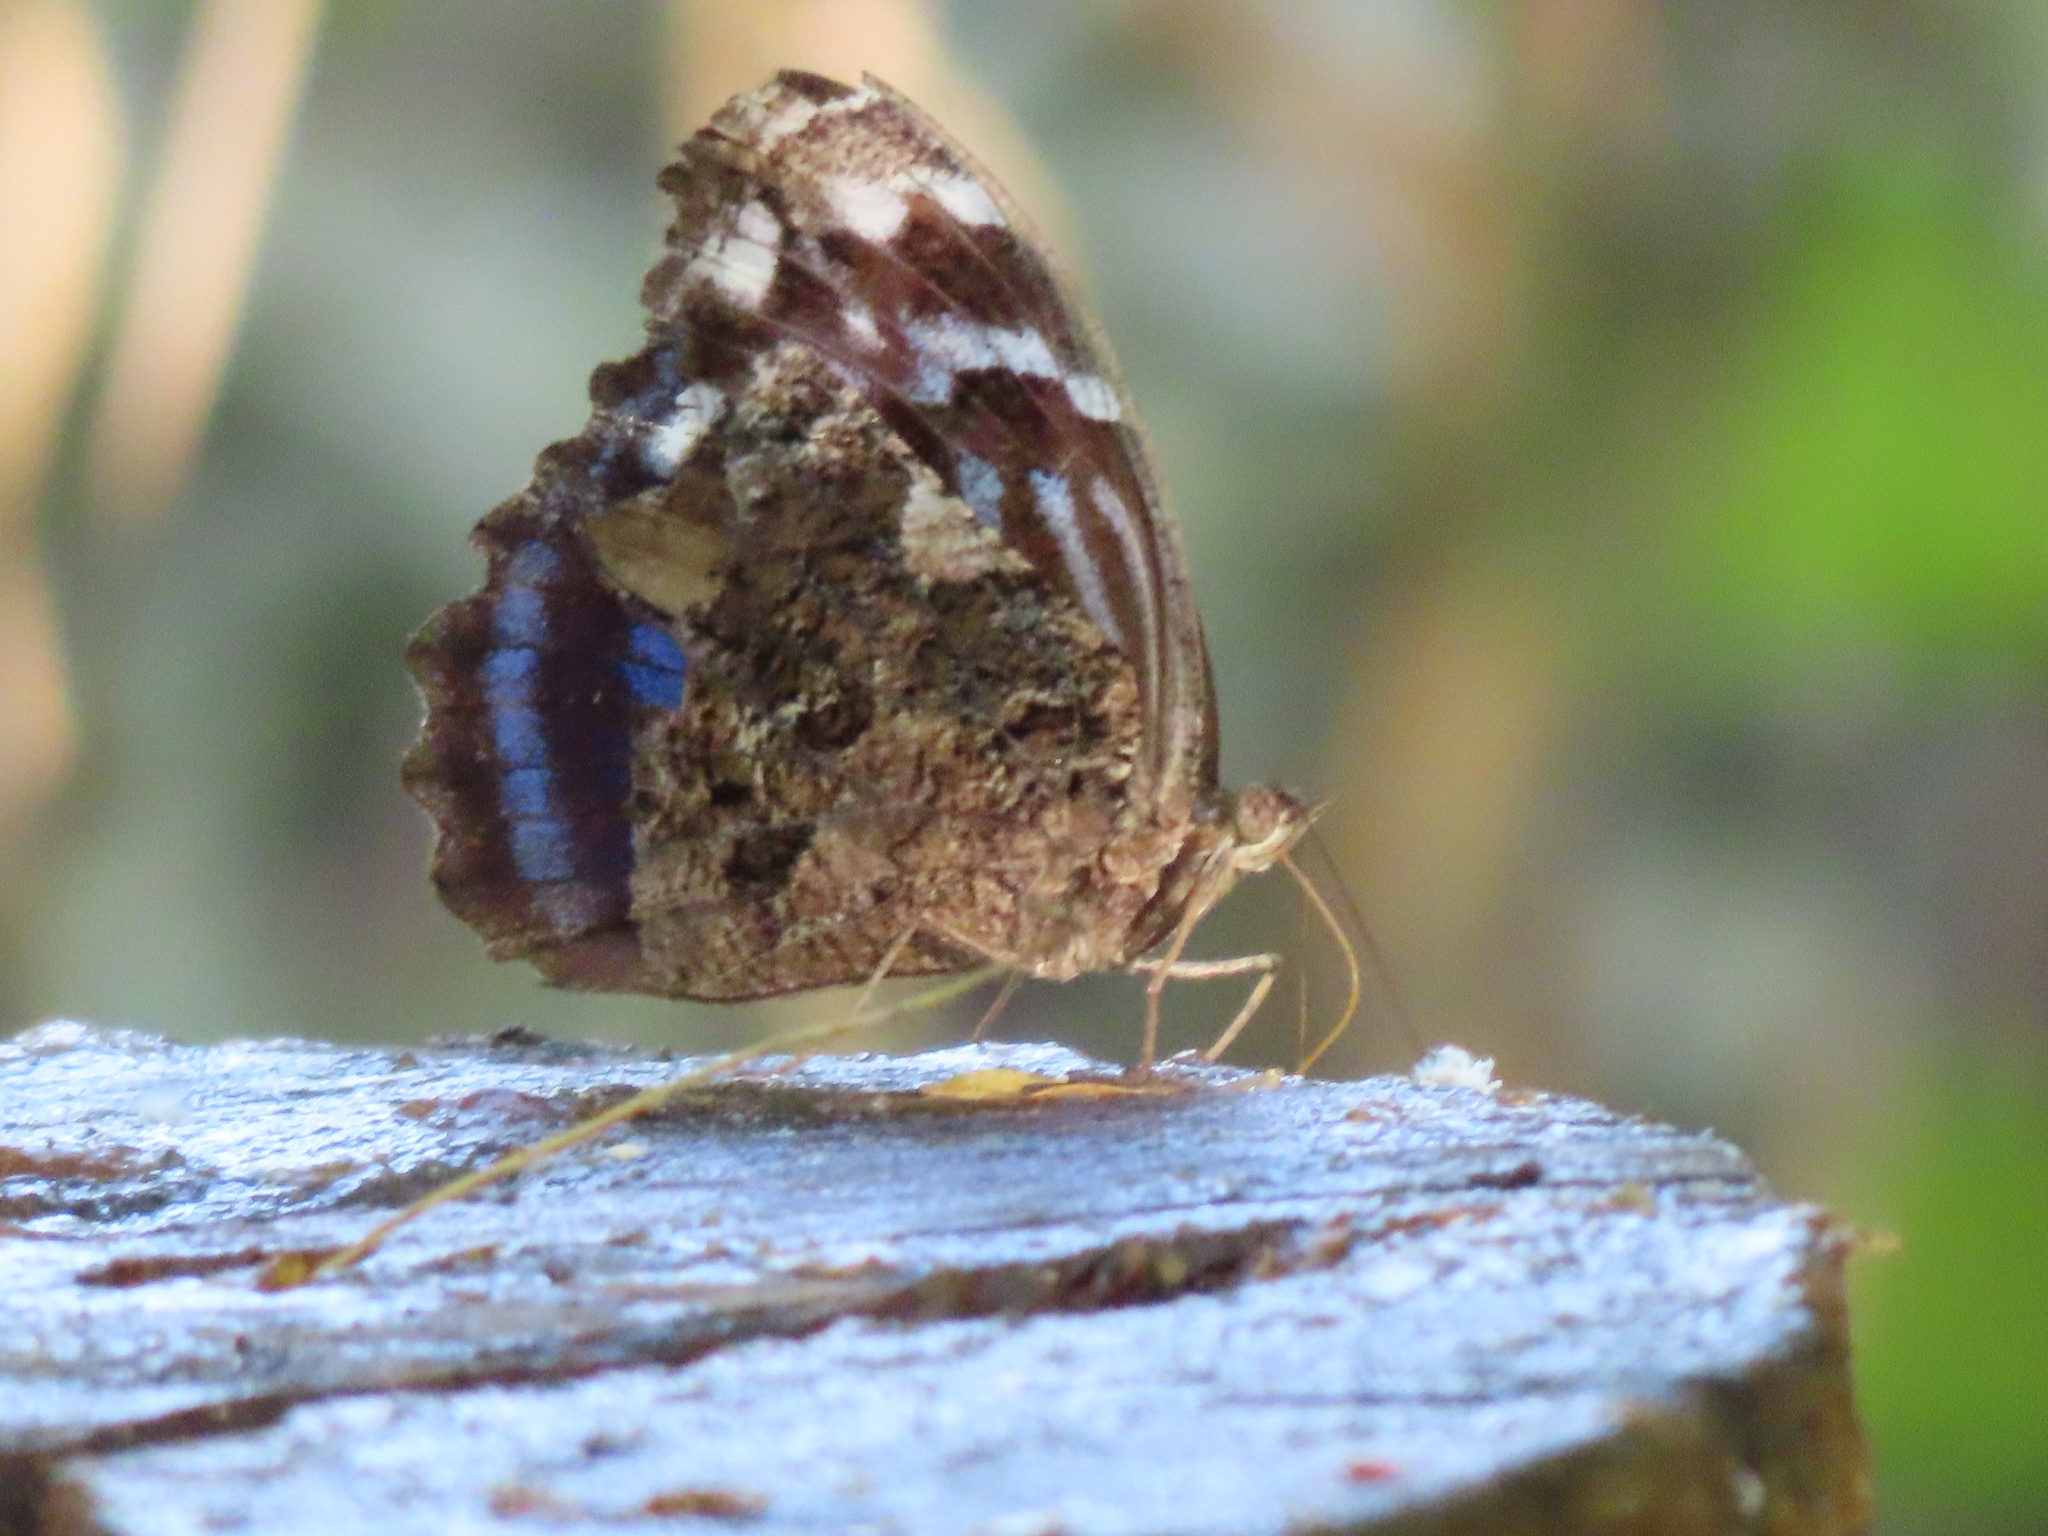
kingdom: Animalia
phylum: Arthropoda
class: Insecta
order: Lepidoptera
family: Nymphalidae
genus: Myscelia
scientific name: Myscelia ethusa
